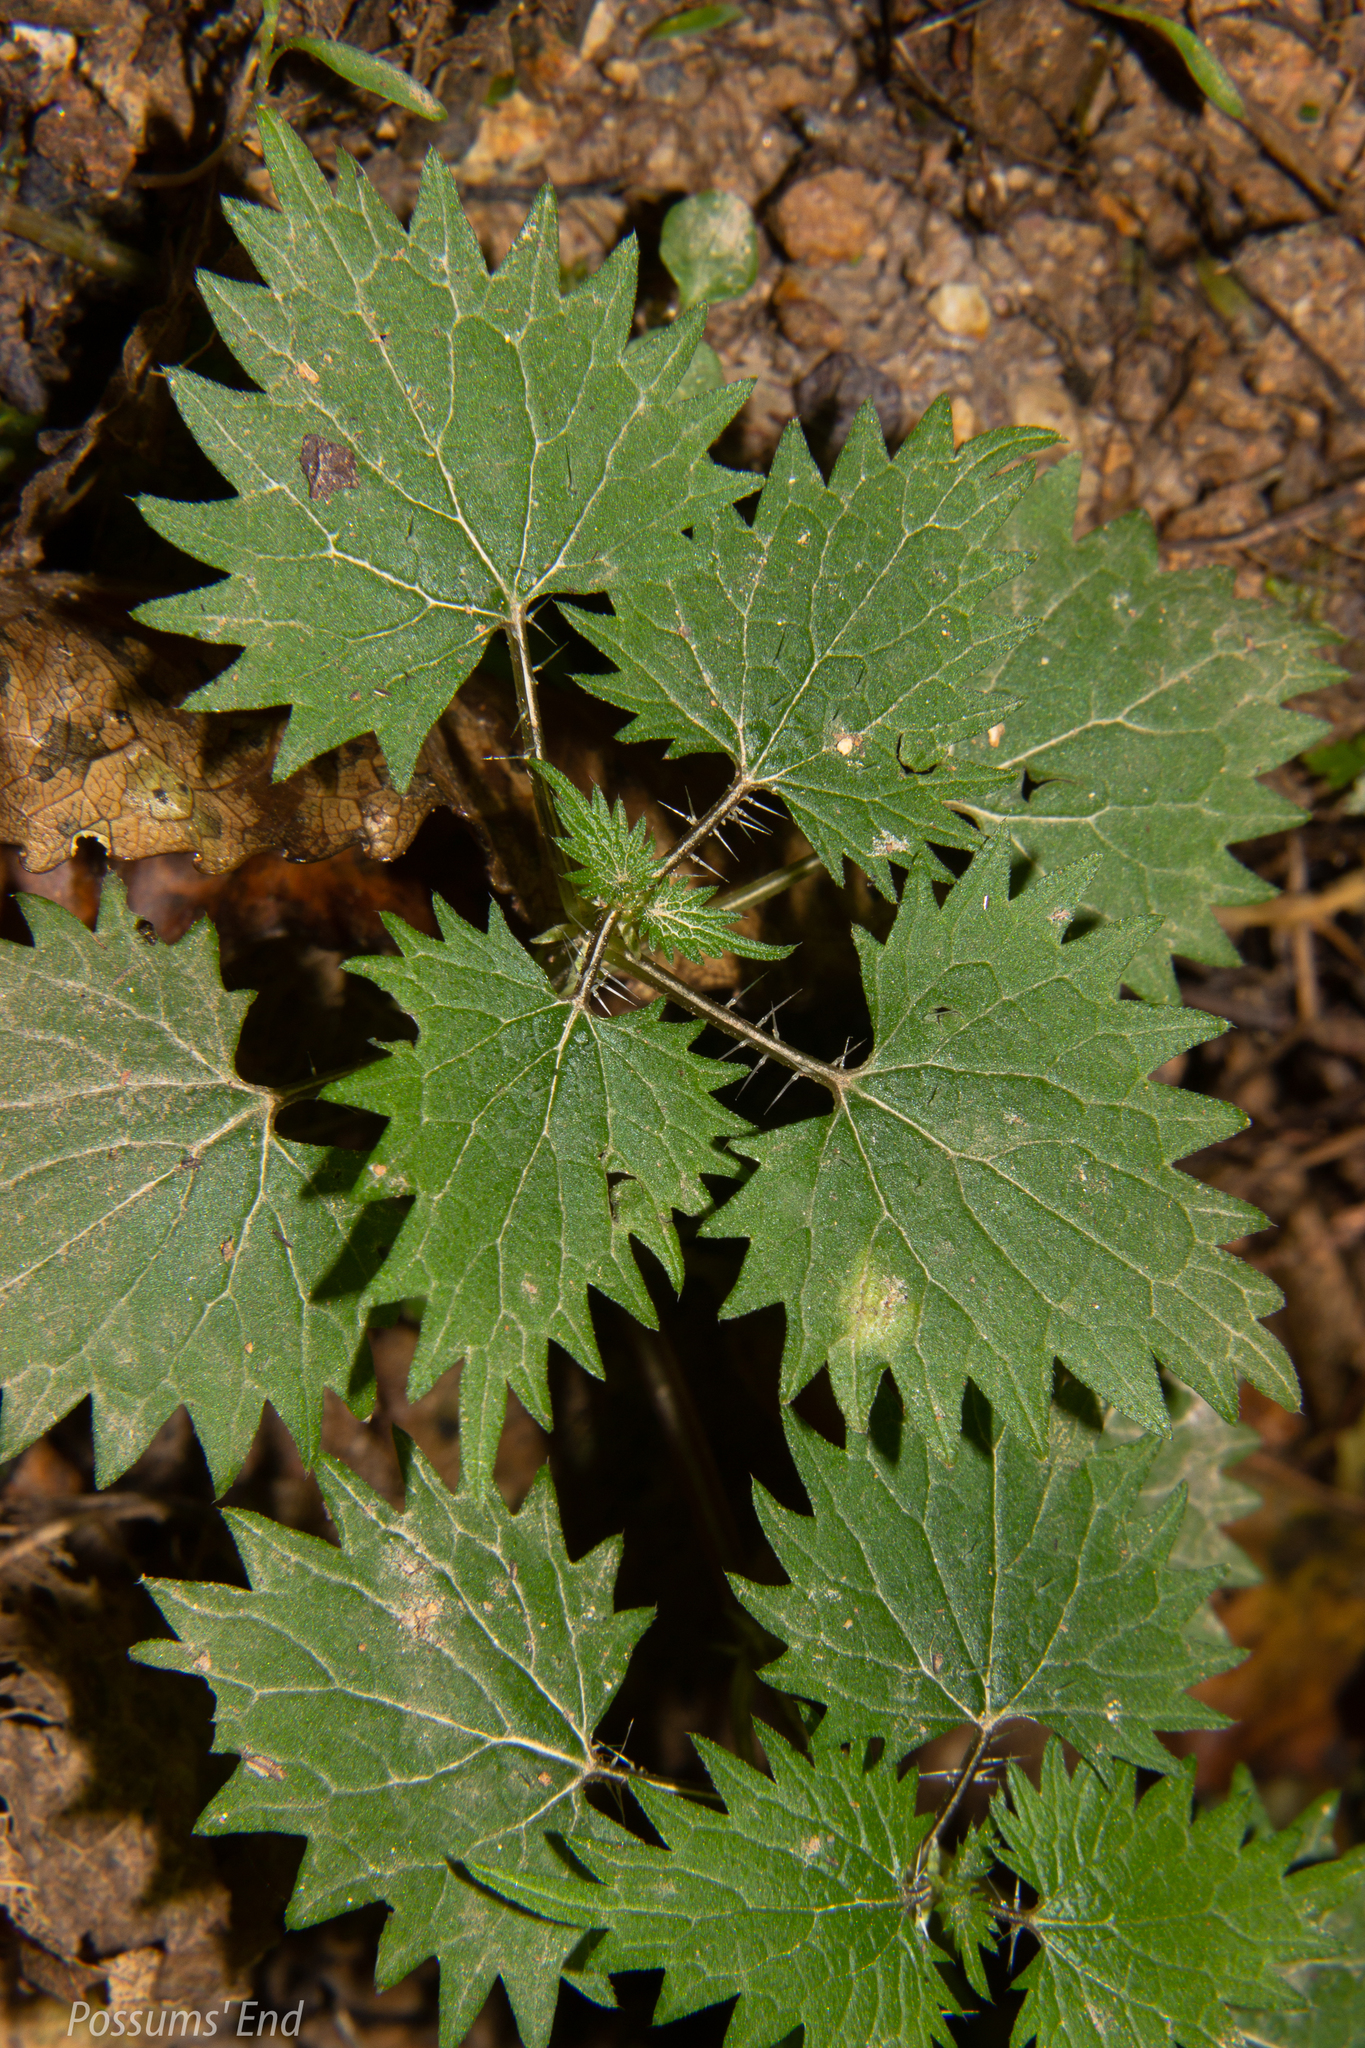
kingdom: Plantae
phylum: Tracheophyta
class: Magnoliopsida
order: Rosales
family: Urticaceae
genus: Urtica
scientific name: Urtica sykesii
